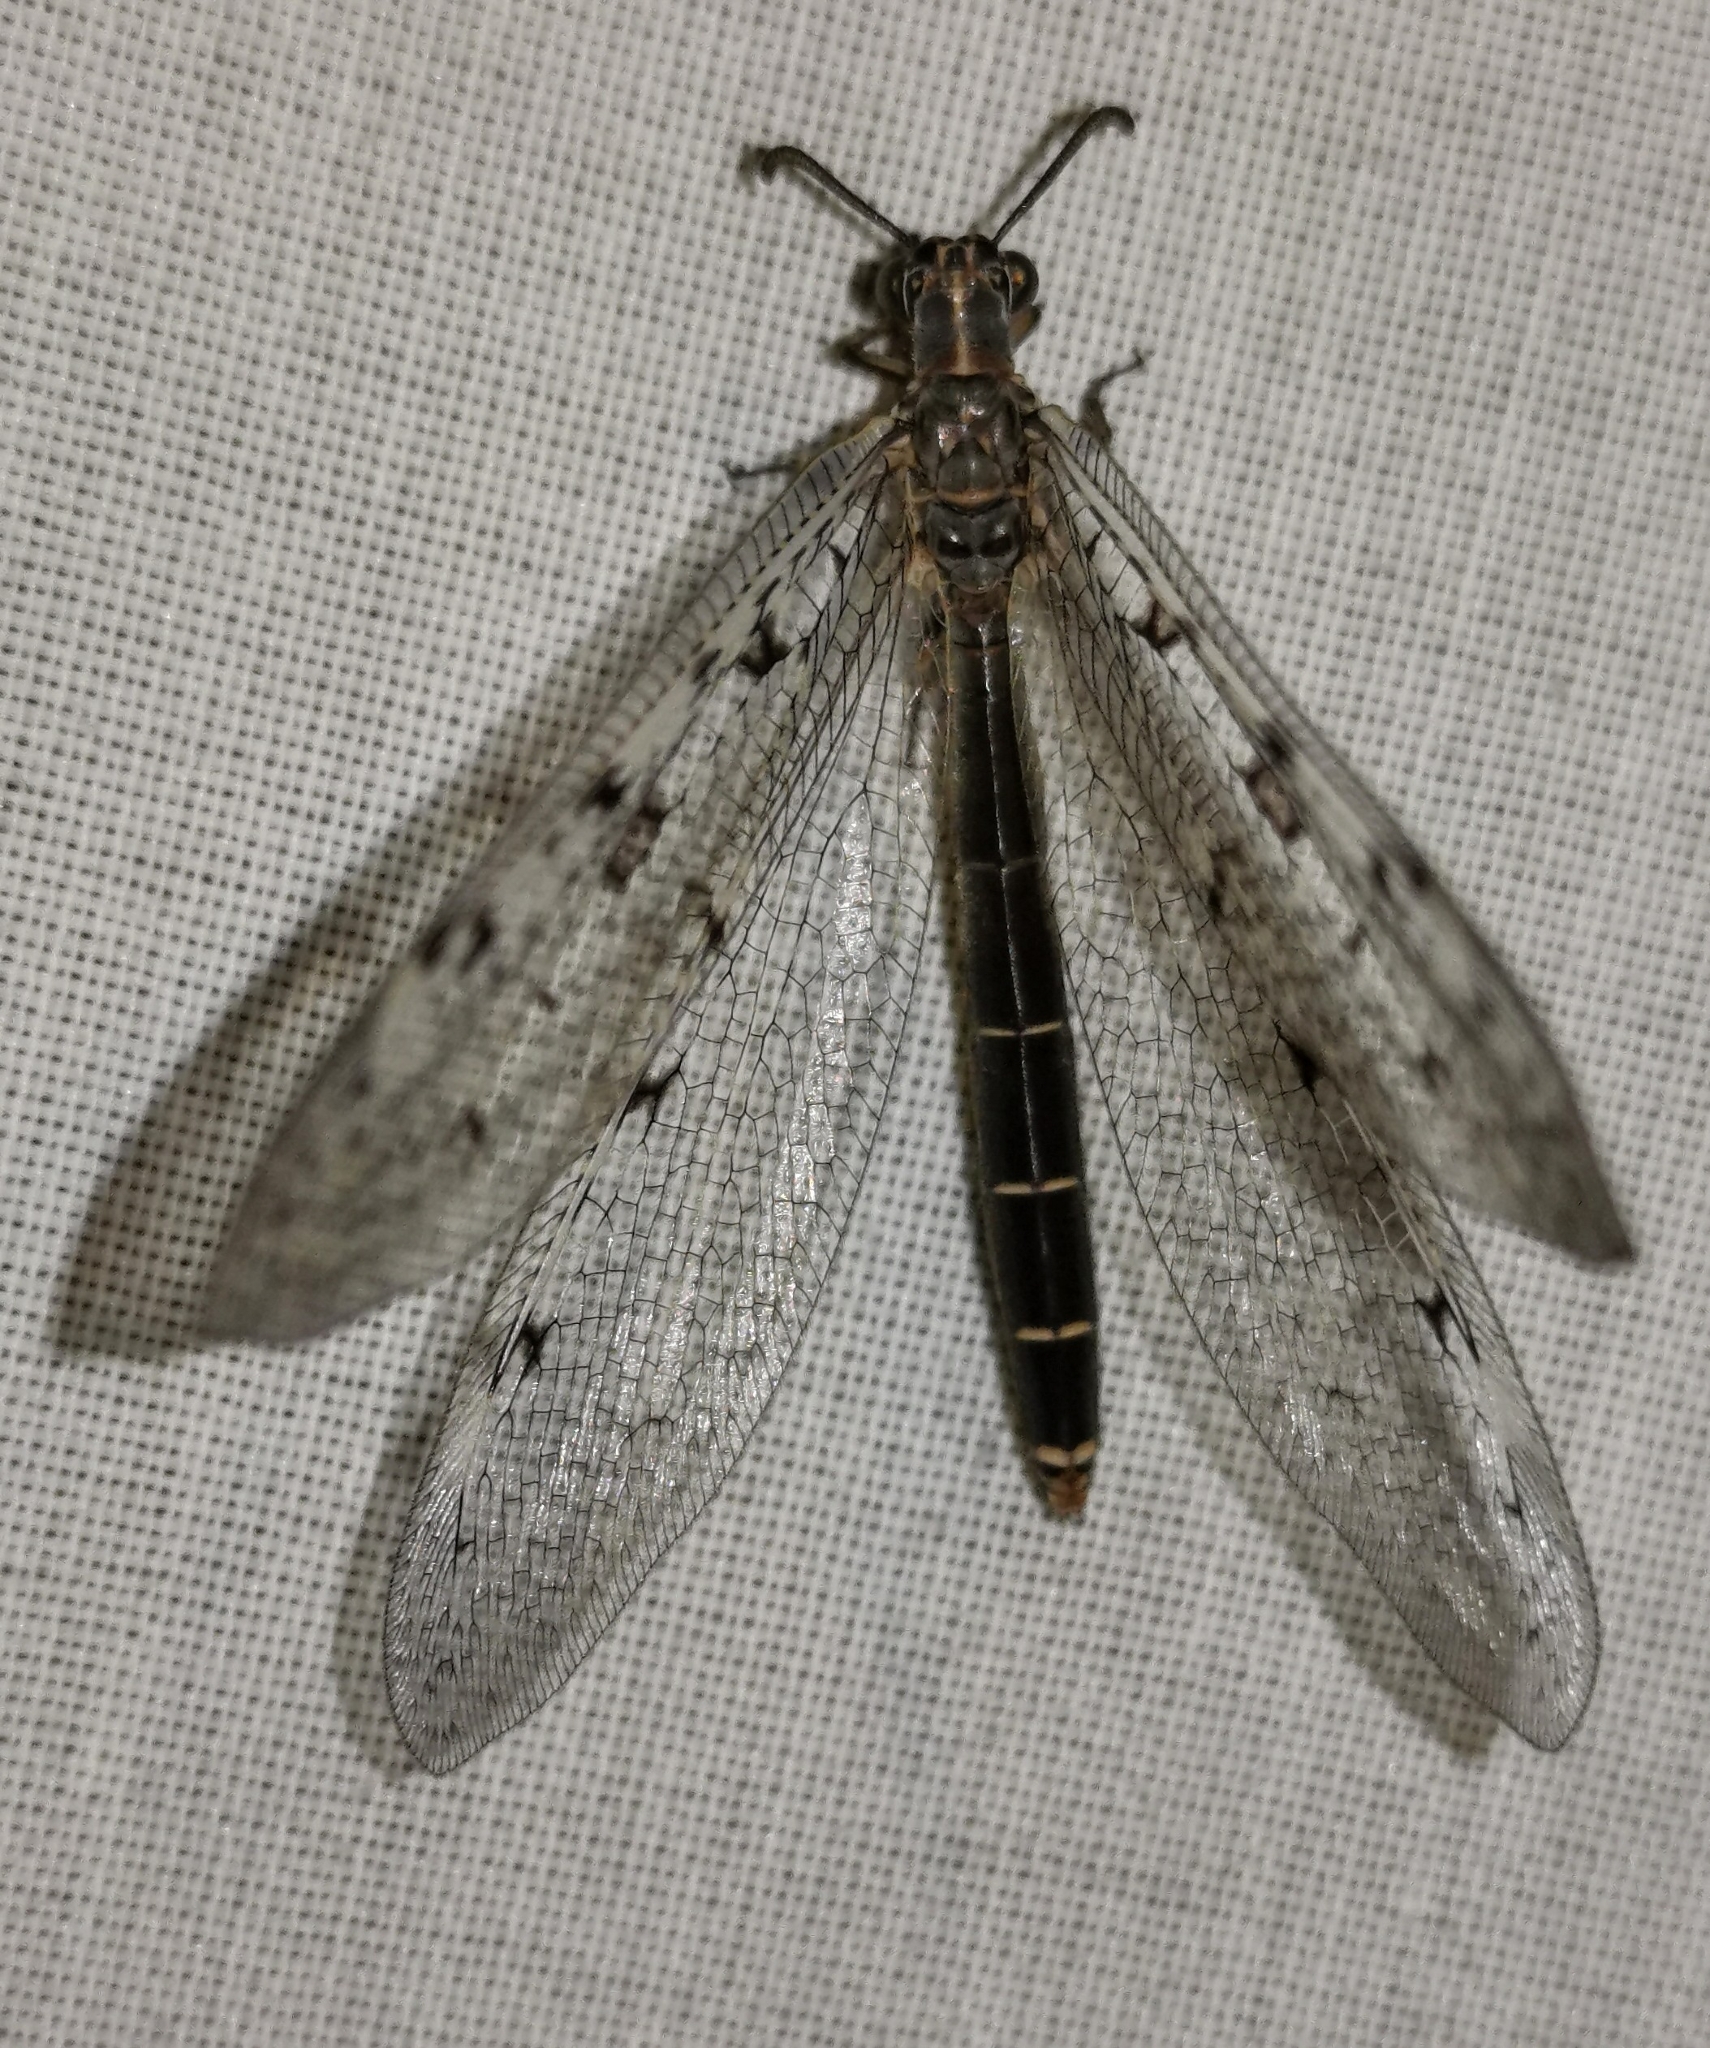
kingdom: Animalia
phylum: Arthropoda
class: Insecta
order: Neuroptera
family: Myrmeleontidae
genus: Euroleon
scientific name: Euroleon nostras
